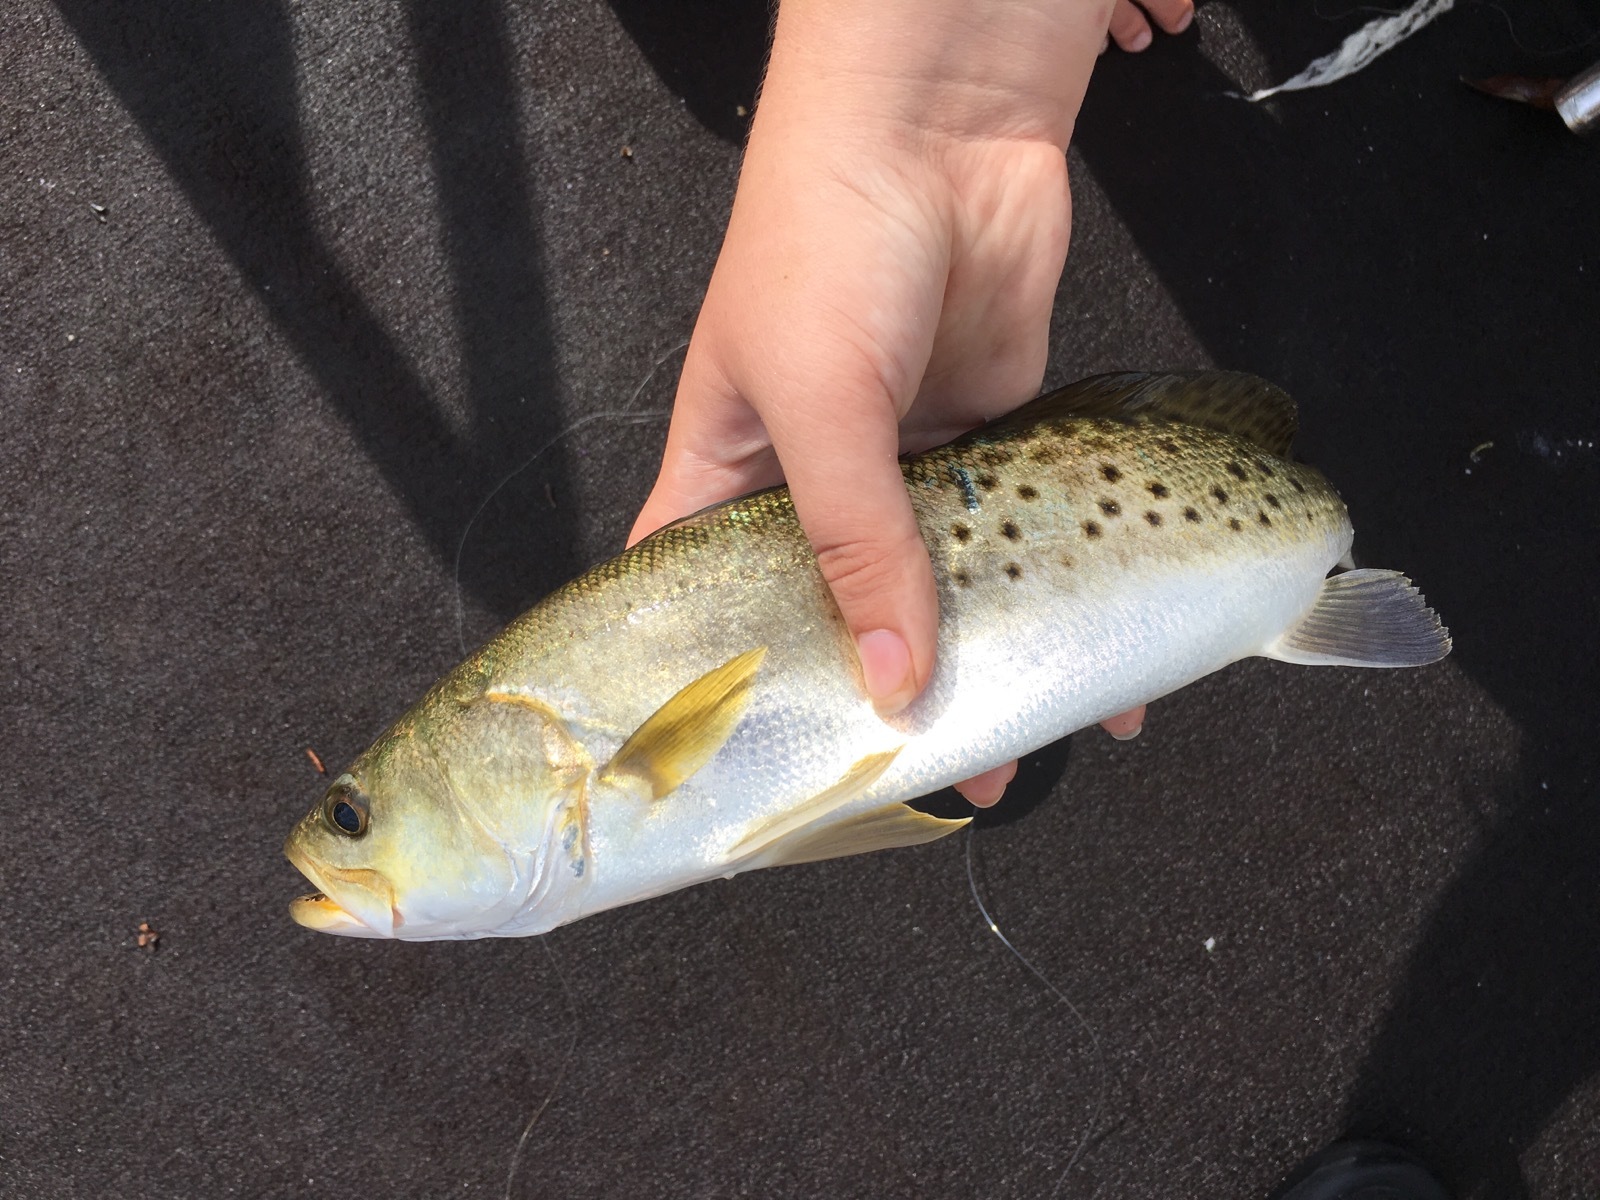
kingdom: Animalia
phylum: Chordata
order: Perciformes
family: Sciaenidae
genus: Cynoscion
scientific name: Cynoscion nebulosus
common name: Spotted seatrout
